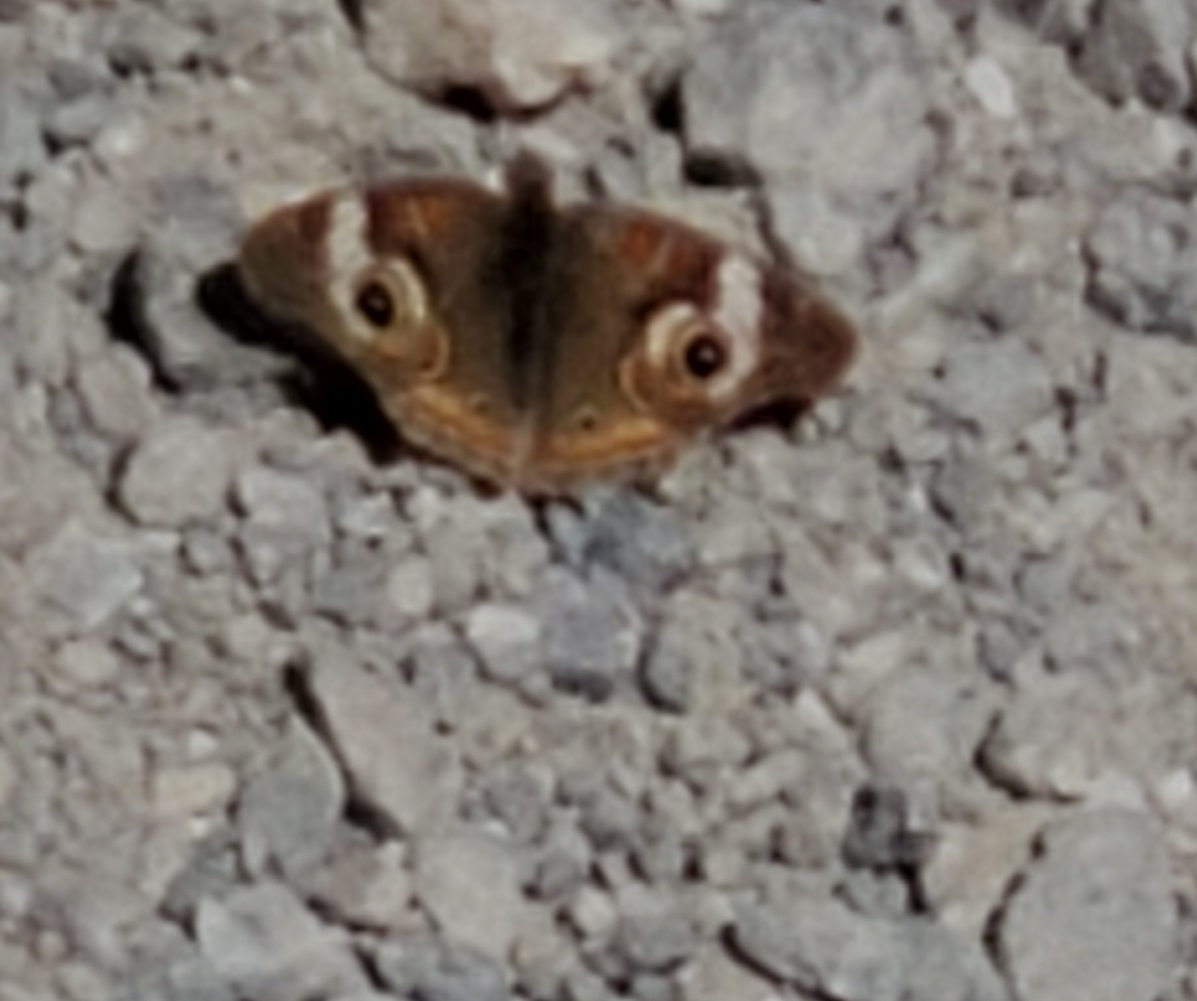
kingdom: Animalia
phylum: Arthropoda
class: Insecta
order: Lepidoptera
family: Nymphalidae
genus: Junonia
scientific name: Junonia grisea
